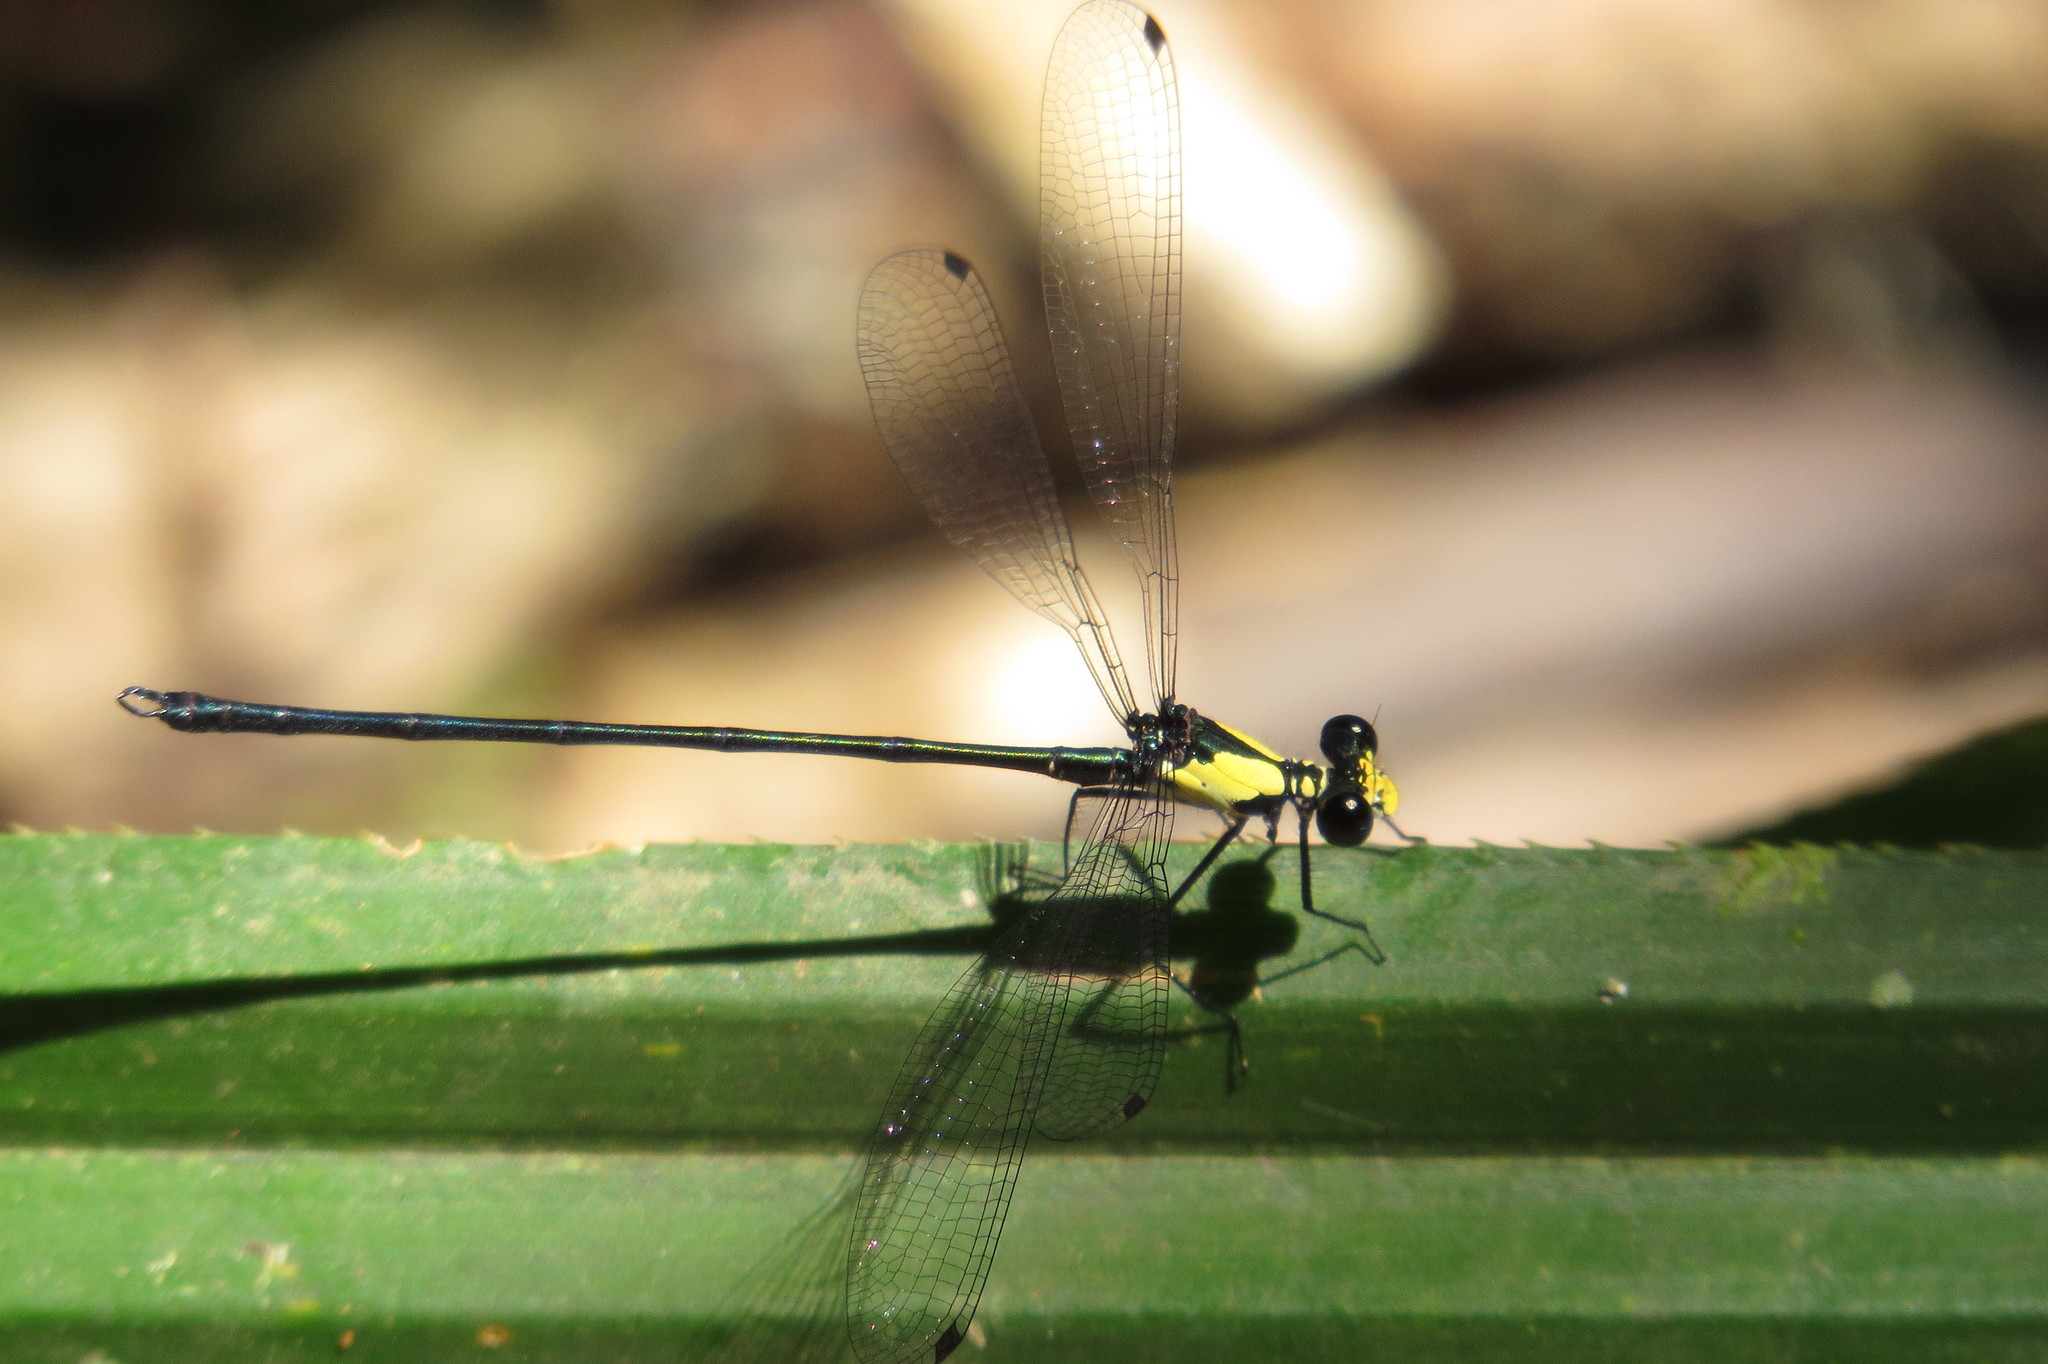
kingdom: Animalia
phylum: Arthropoda
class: Insecta
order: Odonata
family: Argiolestidae
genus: Austroargiolestes
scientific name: Austroargiolestes aureus
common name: Tropical flatwing
